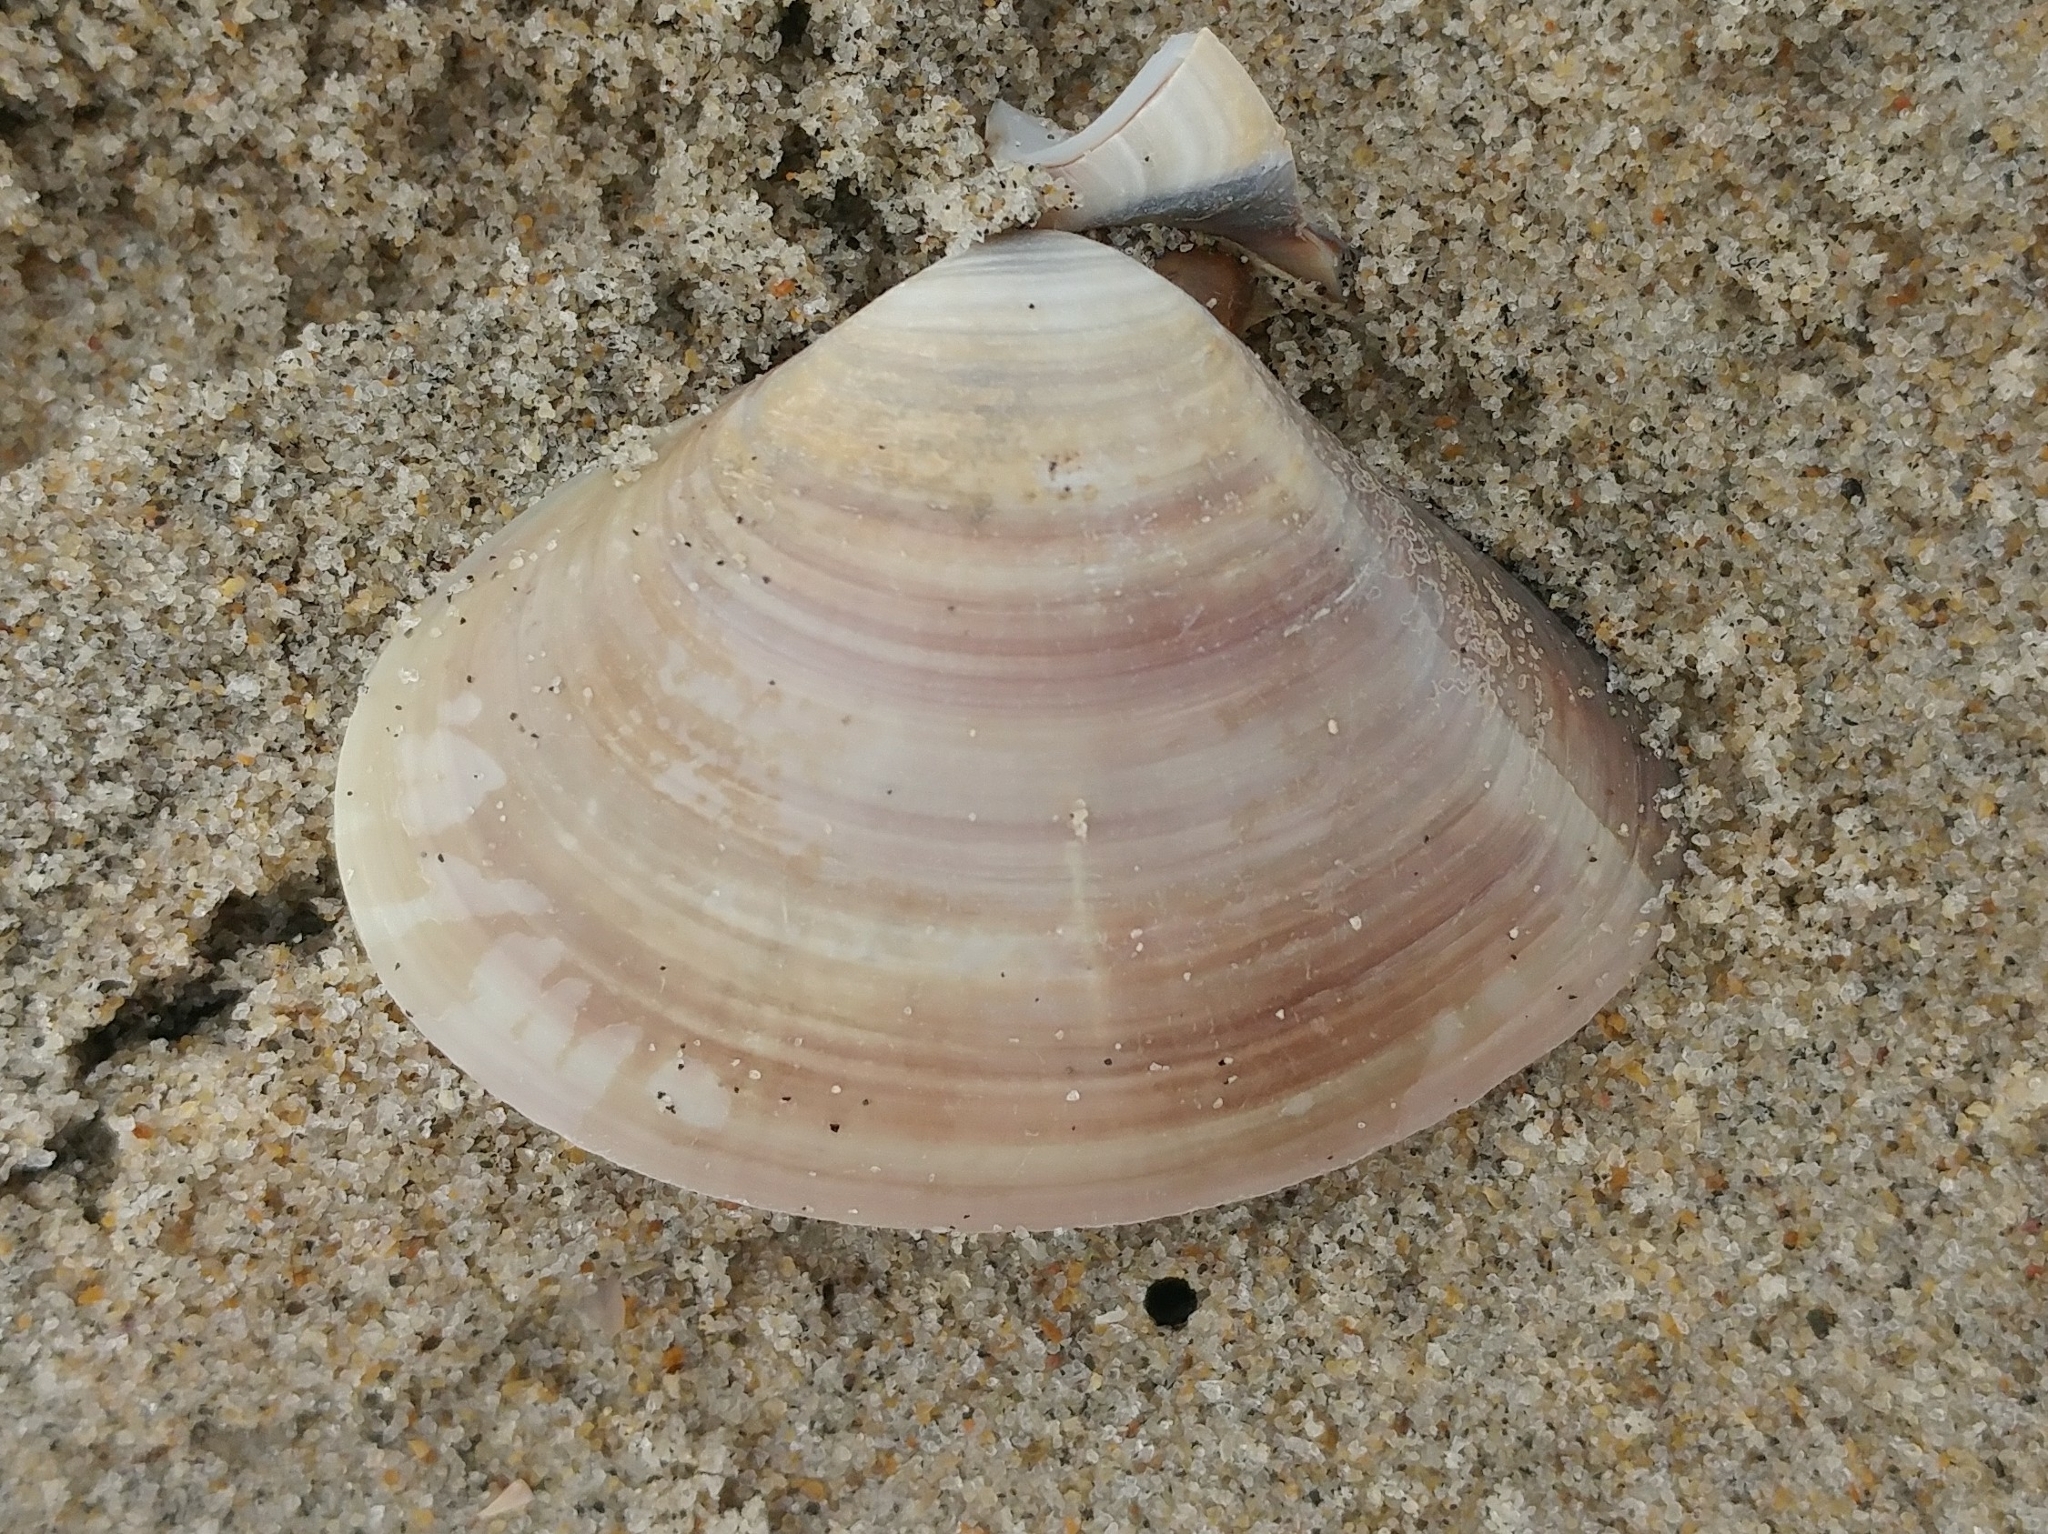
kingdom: Animalia
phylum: Mollusca
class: Bivalvia
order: Venerida
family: Veneridae
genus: Tivela
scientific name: Tivela stultorum
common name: Pismo clam
